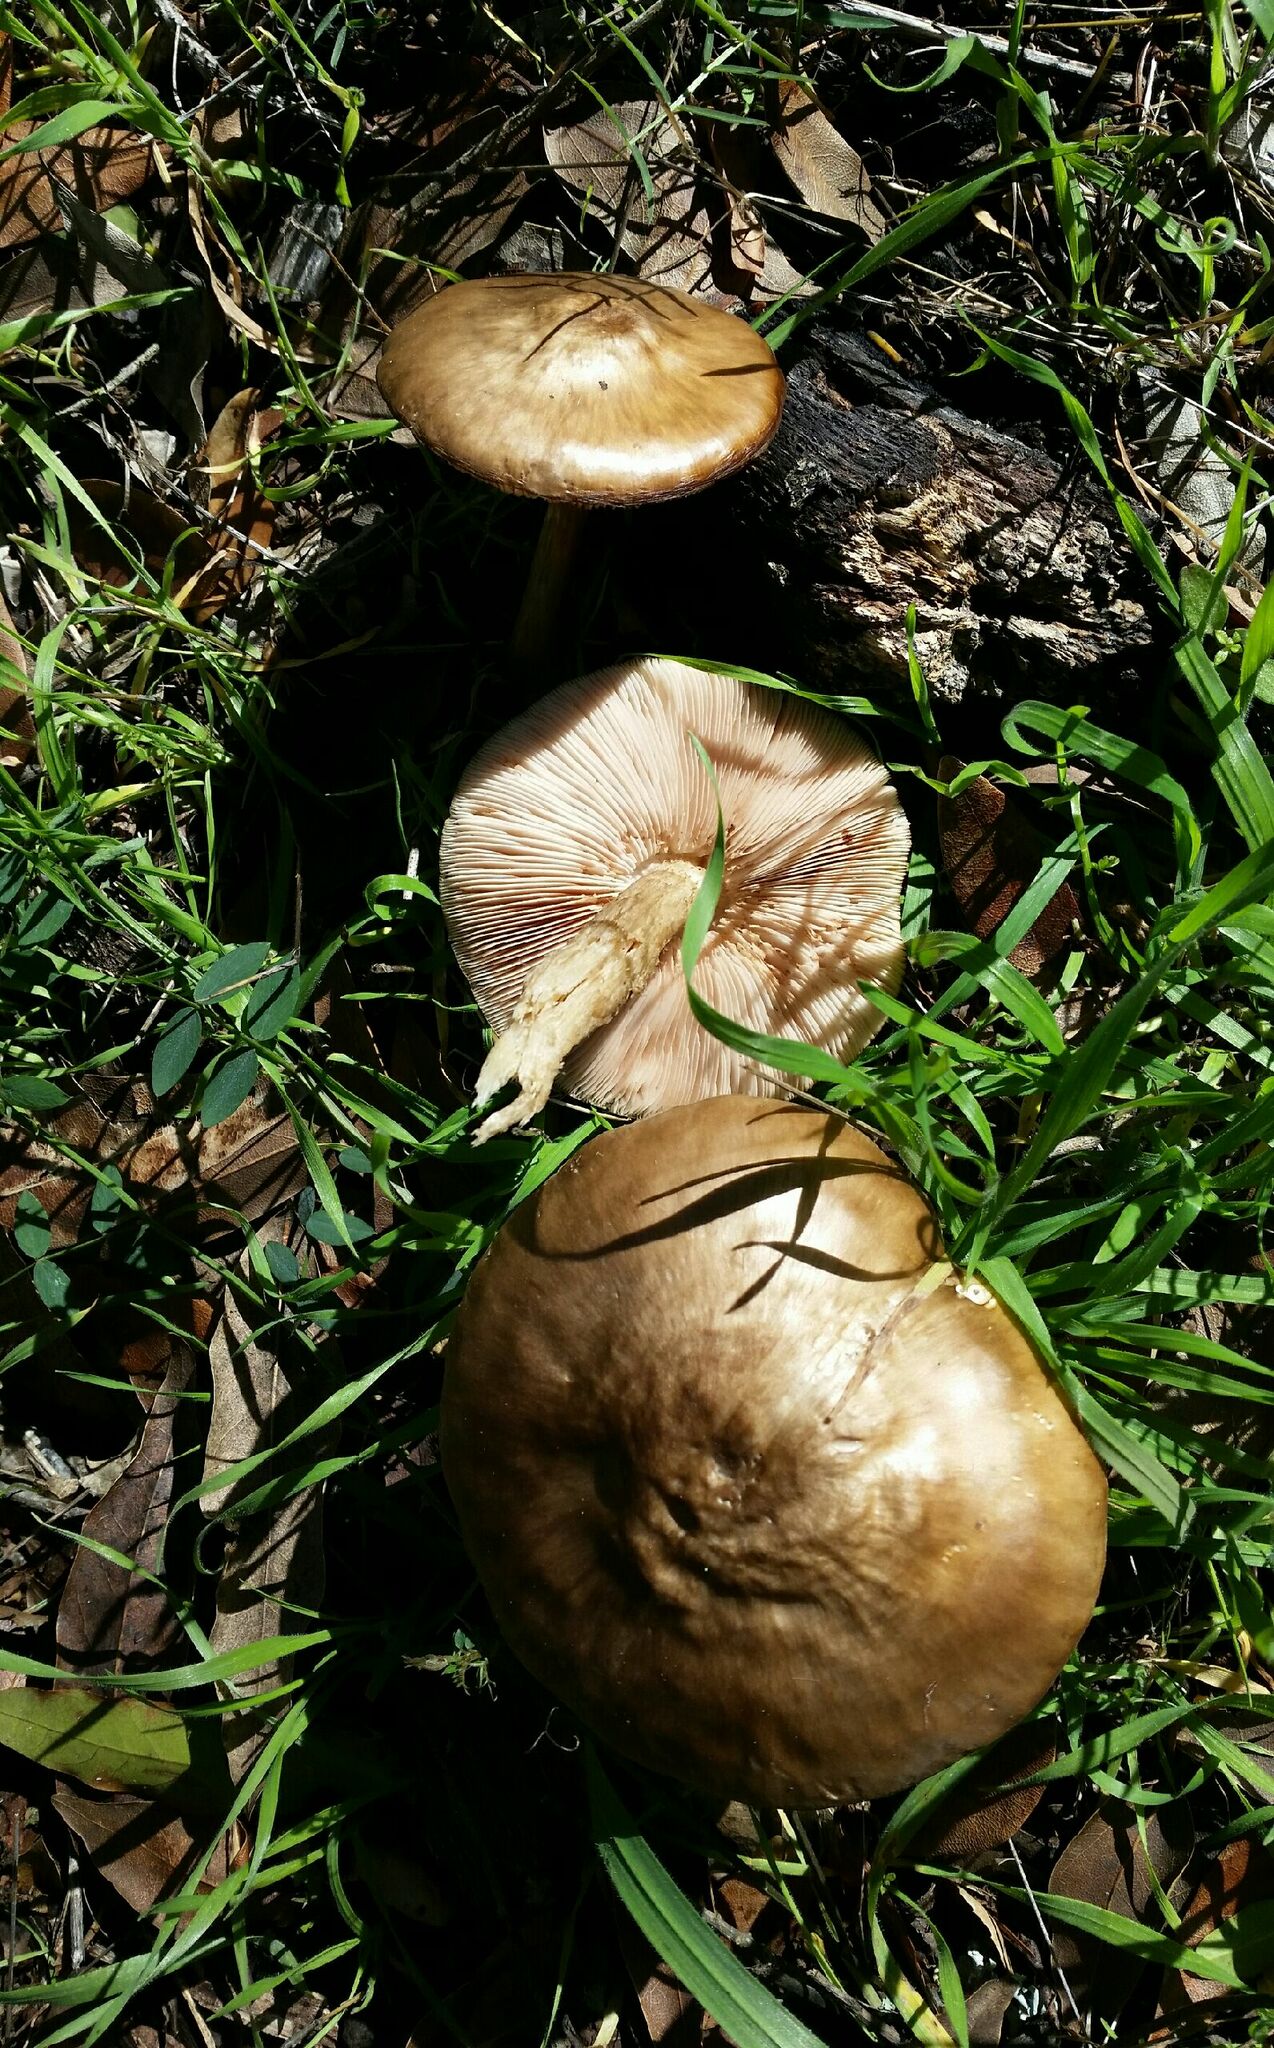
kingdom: Fungi
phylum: Basidiomycota
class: Agaricomycetes
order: Agaricales
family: Pluteaceae
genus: Pluteus
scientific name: Pluteus cervinus
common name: Deer shield
